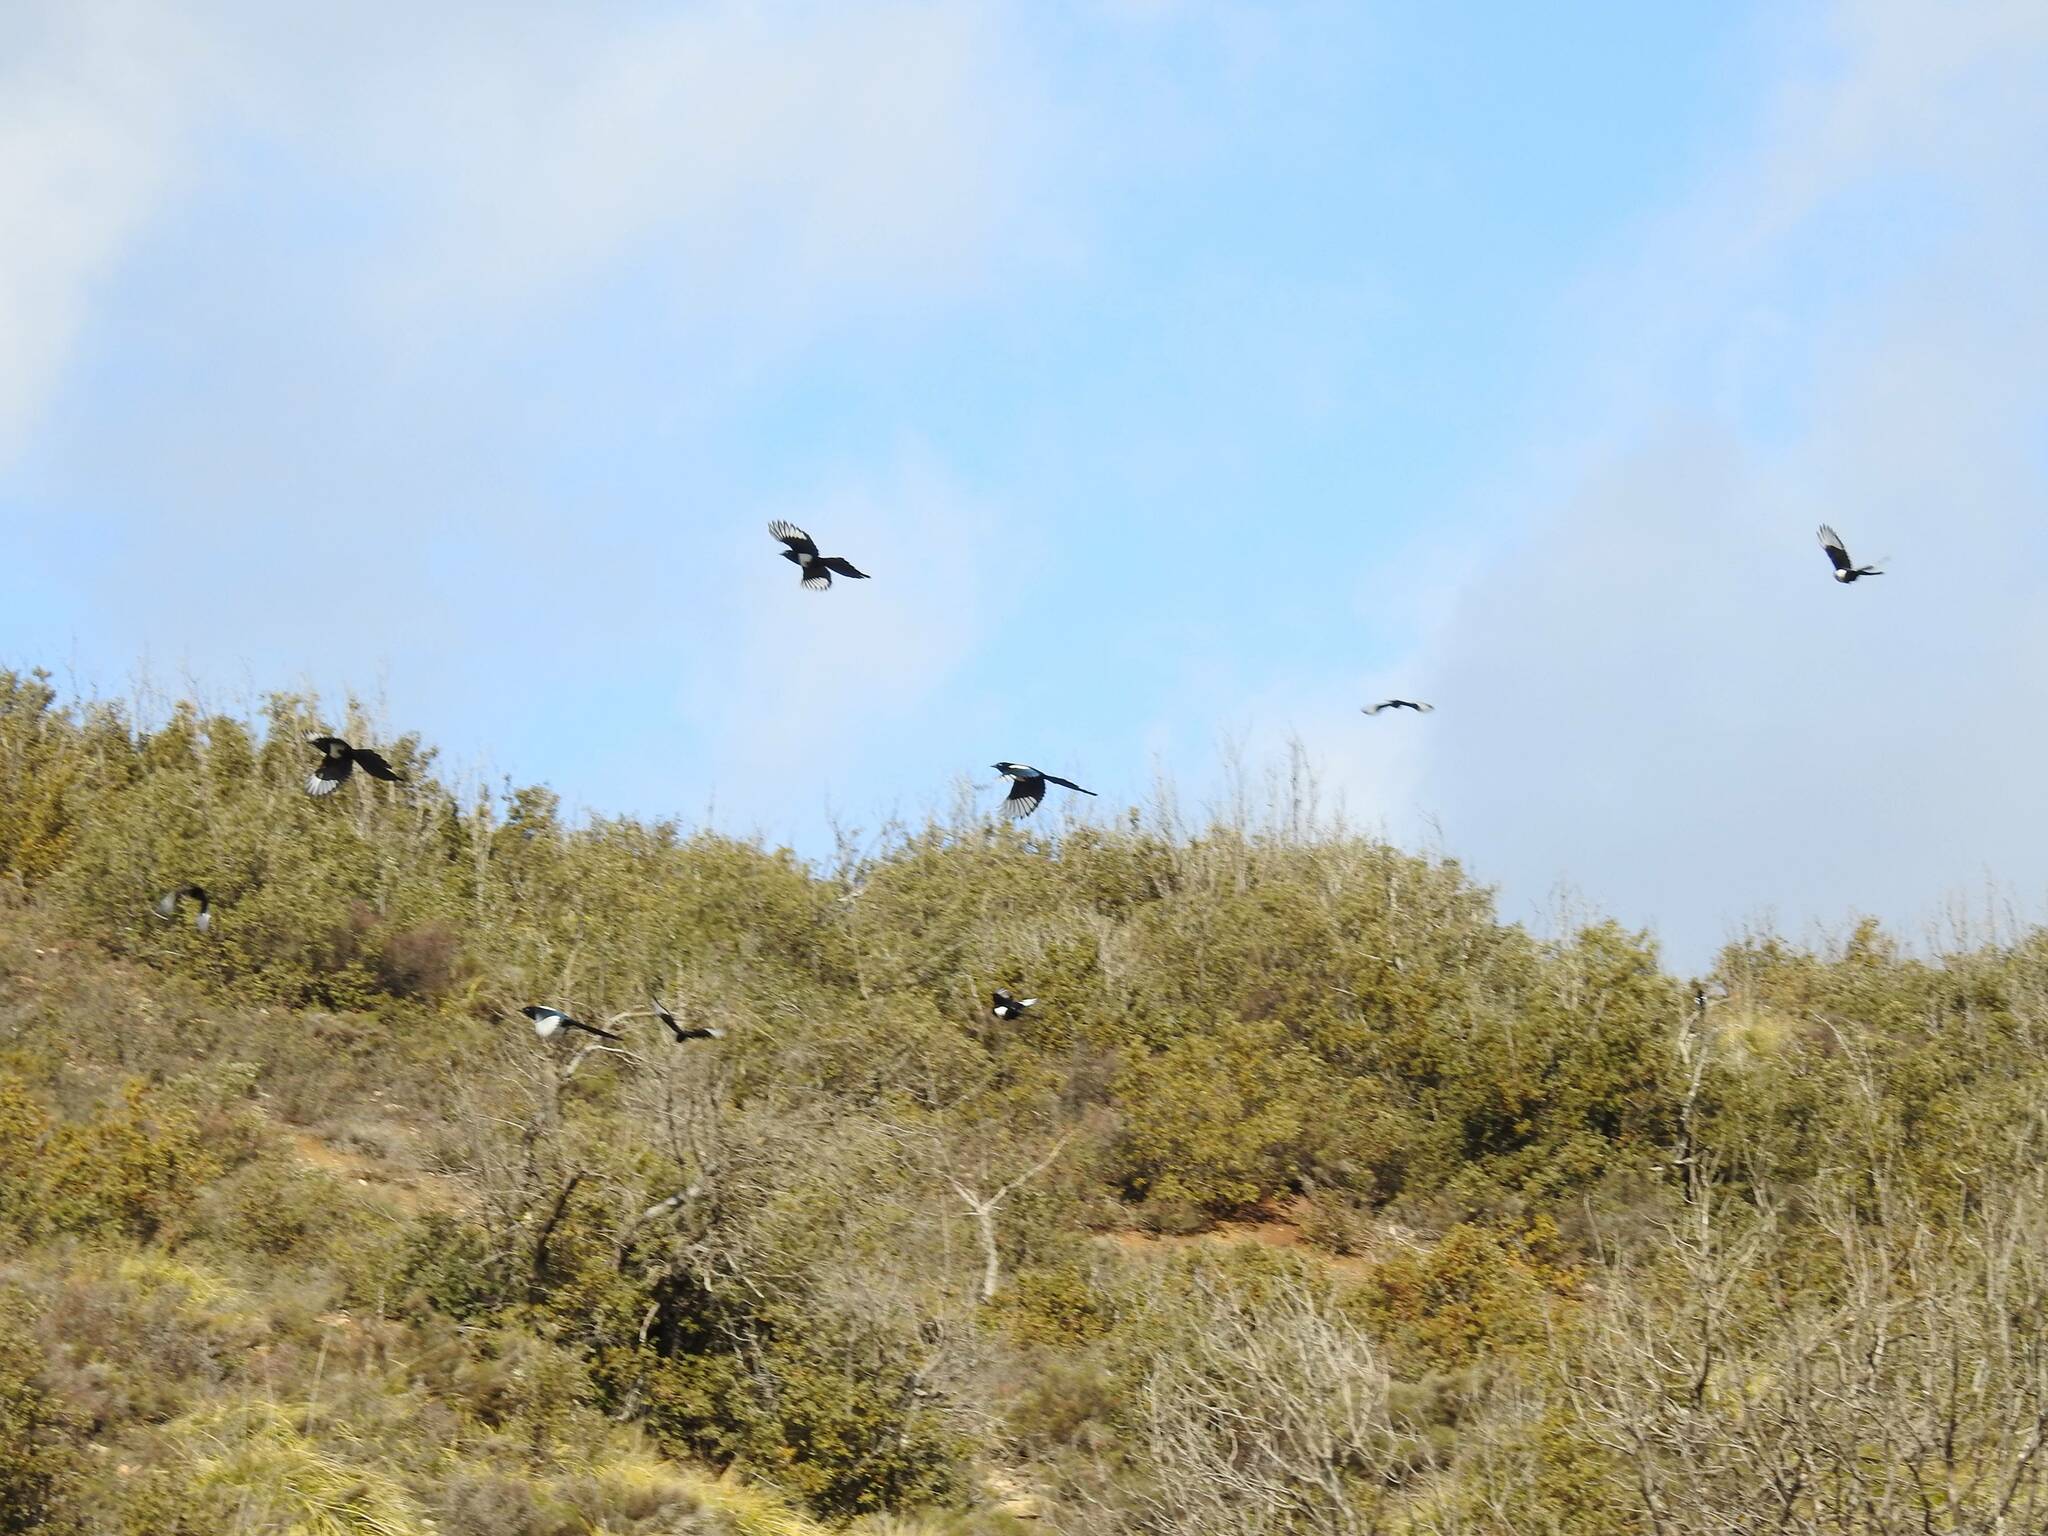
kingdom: Animalia
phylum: Chordata
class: Aves
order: Passeriformes
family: Corvidae
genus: Pica
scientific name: Pica mauritanica
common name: Maghreb magpie
